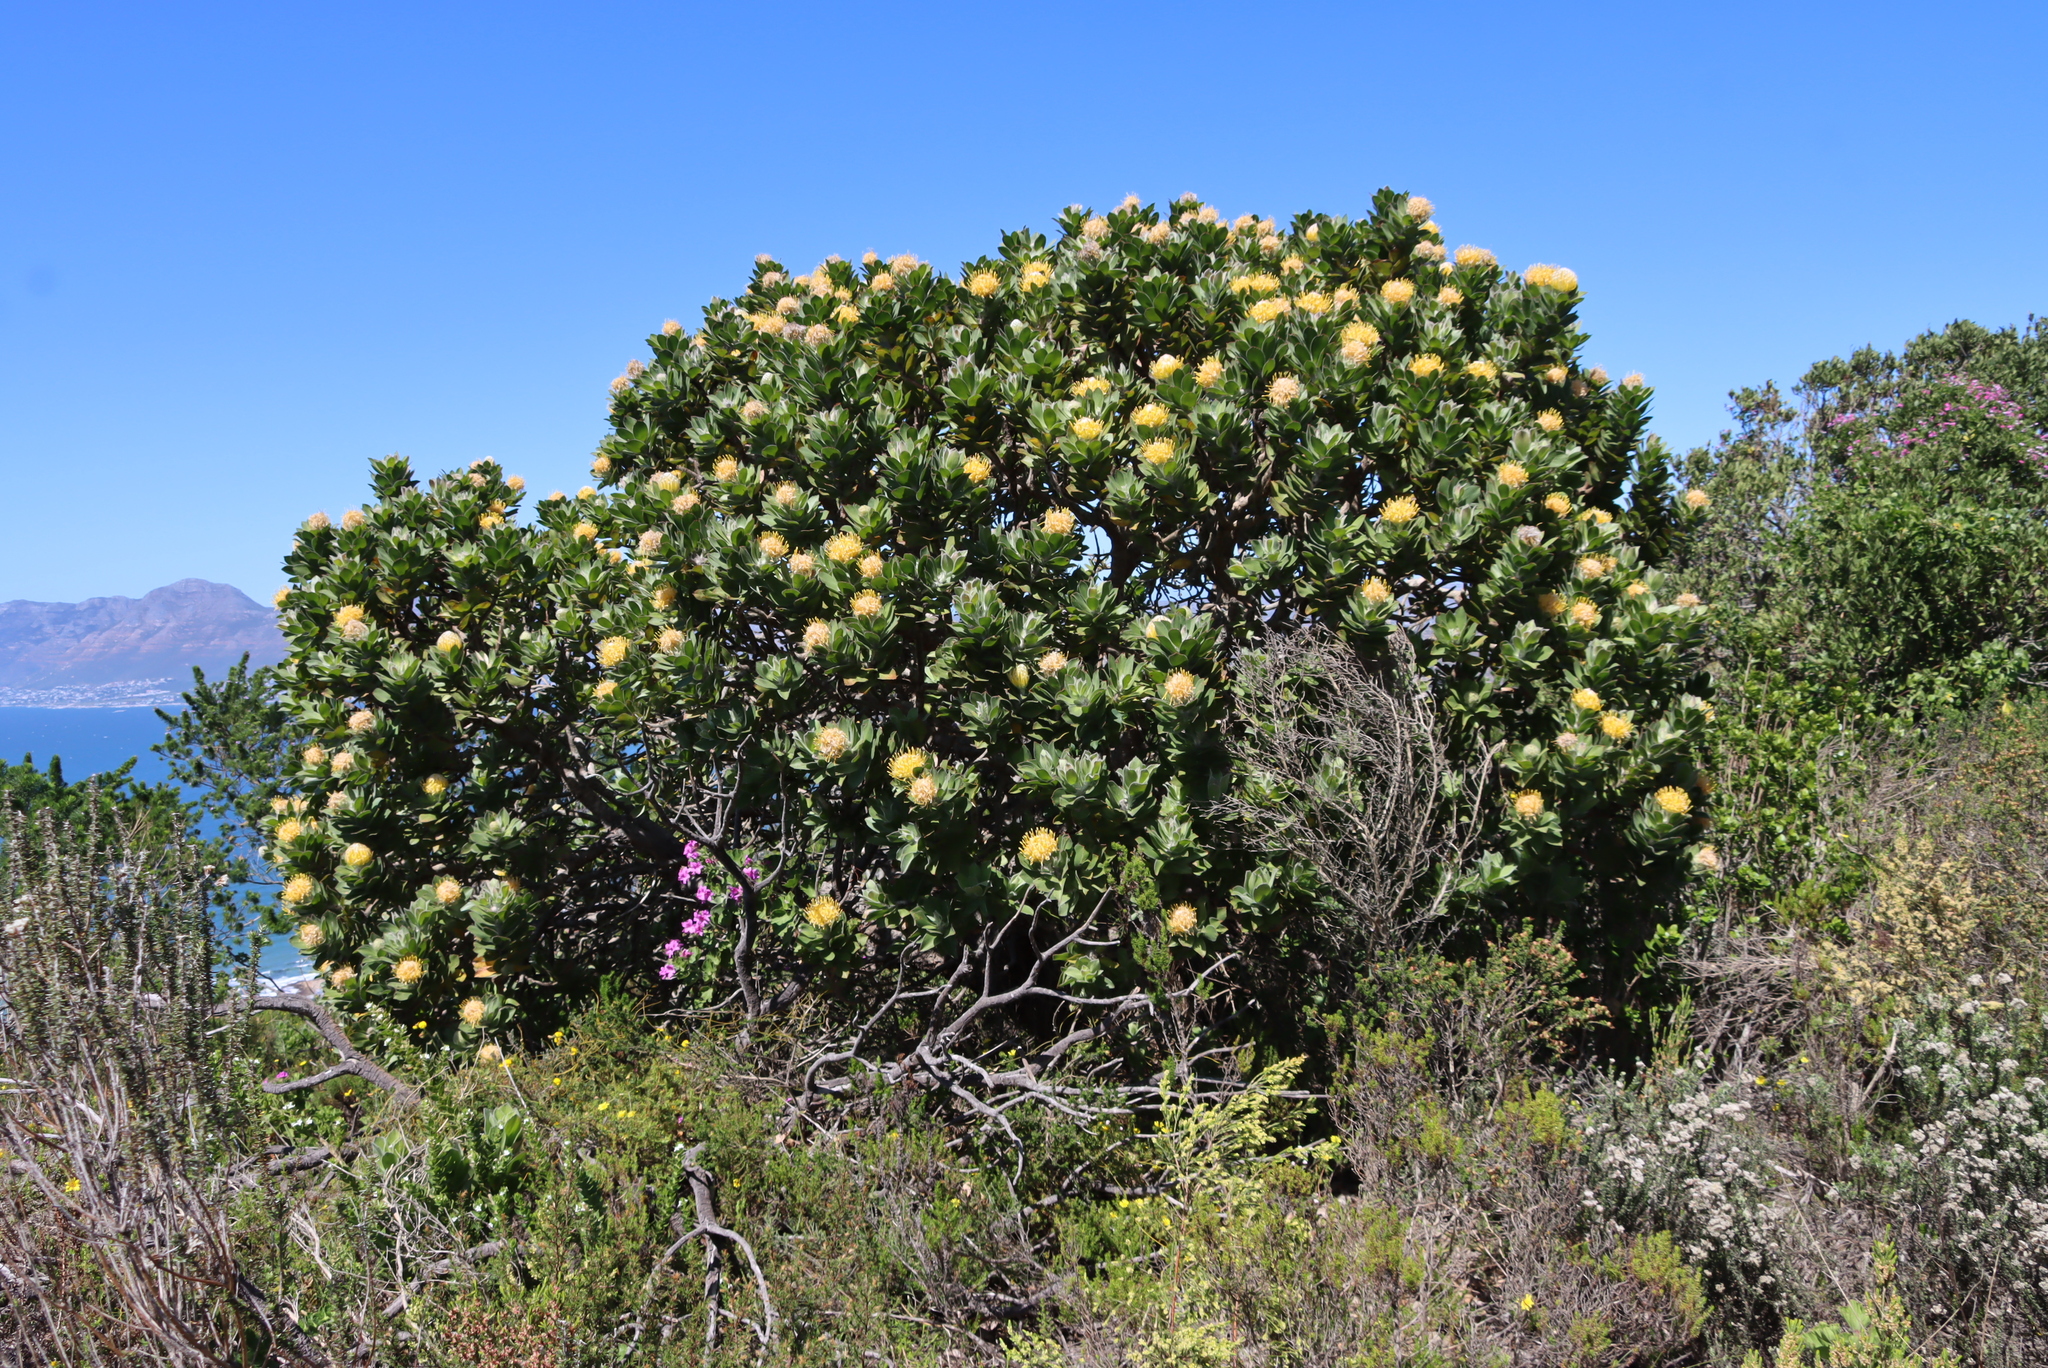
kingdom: Plantae
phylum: Tracheophyta
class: Magnoliopsida
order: Proteales
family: Proteaceae
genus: Leucospermum
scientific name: Leucospermum conocarpodendron
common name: Tree pincushion
